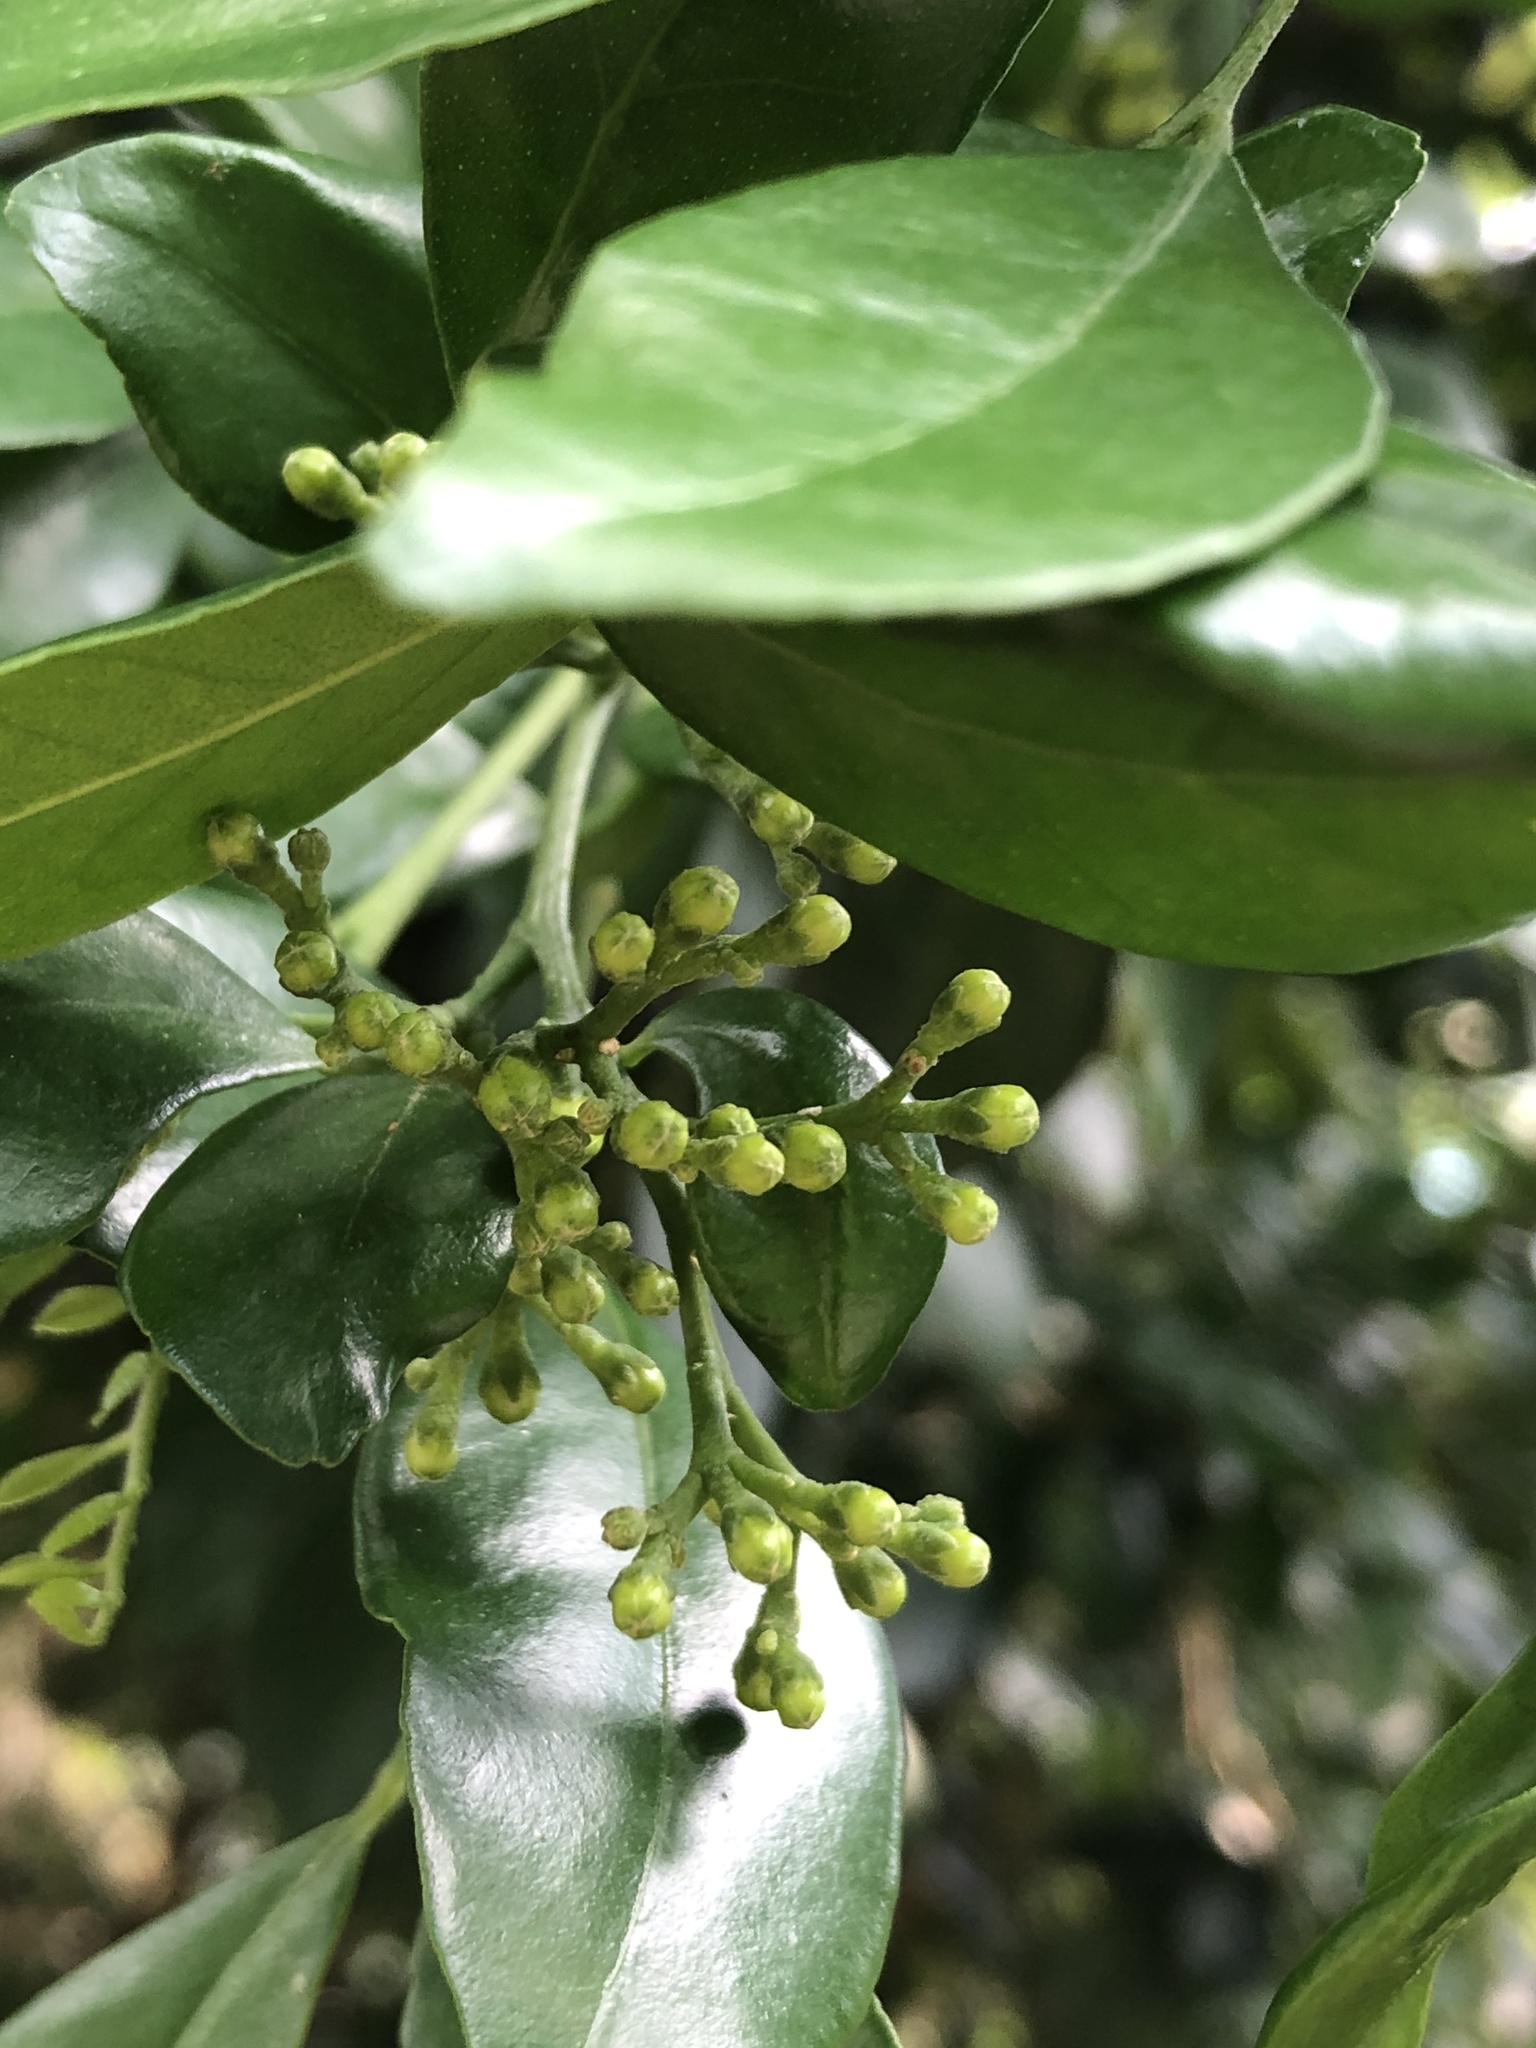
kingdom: Plantae
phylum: Tracheophyta
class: Magnoliopsida
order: Sapindales
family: Rutaceae
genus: Murraya
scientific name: Murraya paniculata
